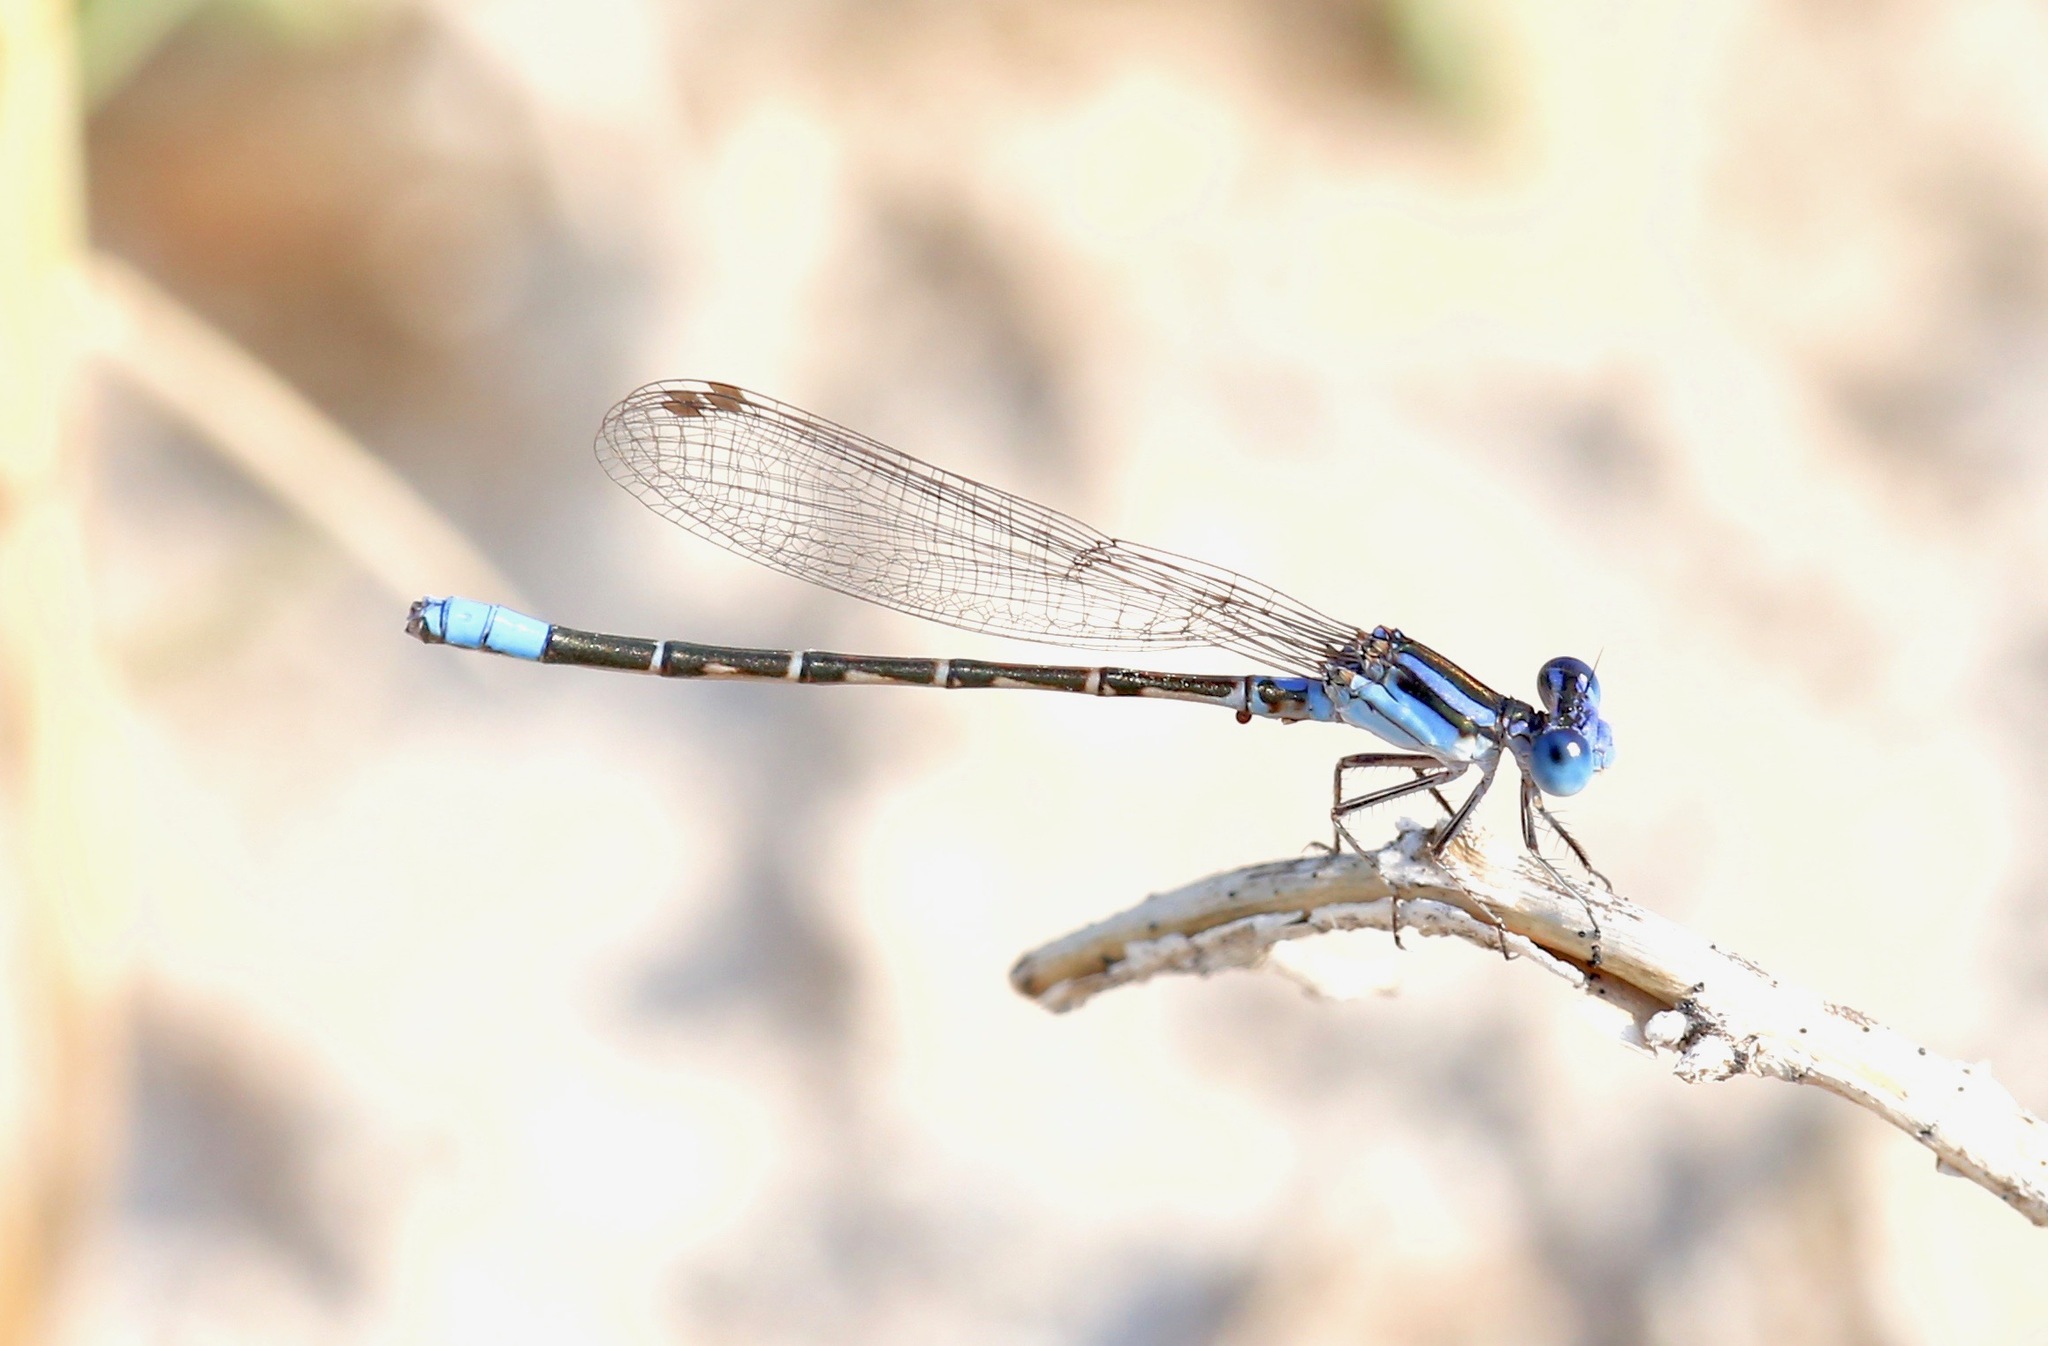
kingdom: Animalia
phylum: Arthropoda
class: Insecta
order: Odonata
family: Coenagrionidae
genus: Argia
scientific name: Argia alberta
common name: Paiute dancer
